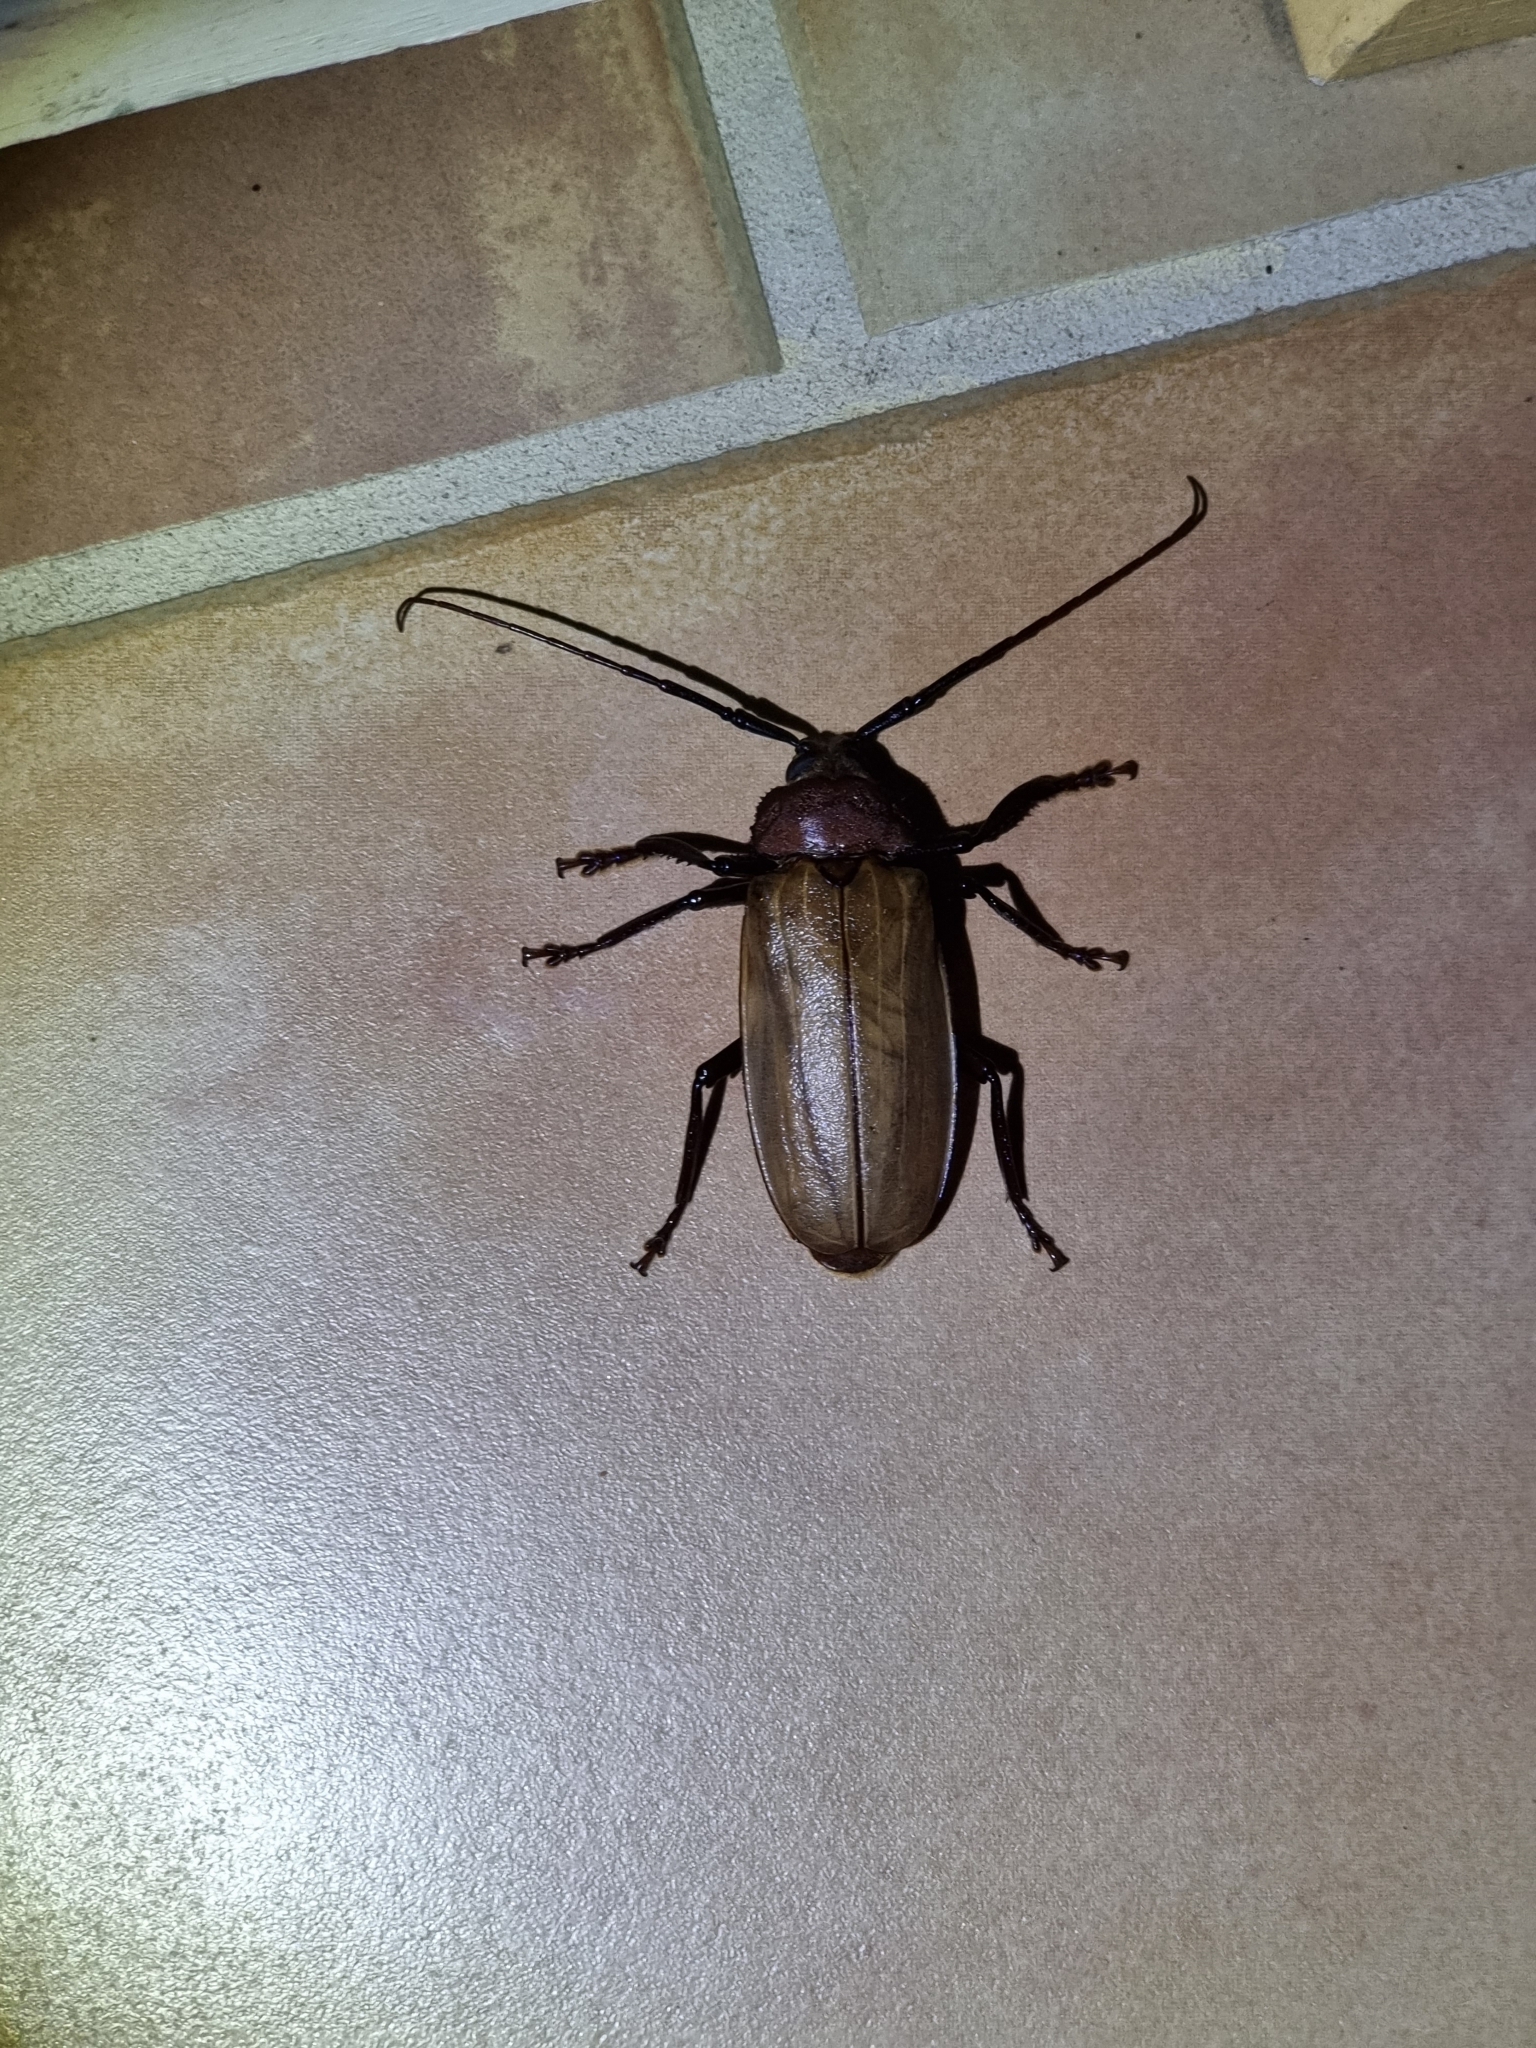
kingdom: Animalia
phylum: Arthropoda
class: Insecta
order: Coleoptera
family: Cerambycidae
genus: Agrianome
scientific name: Agrianome spinicollis
